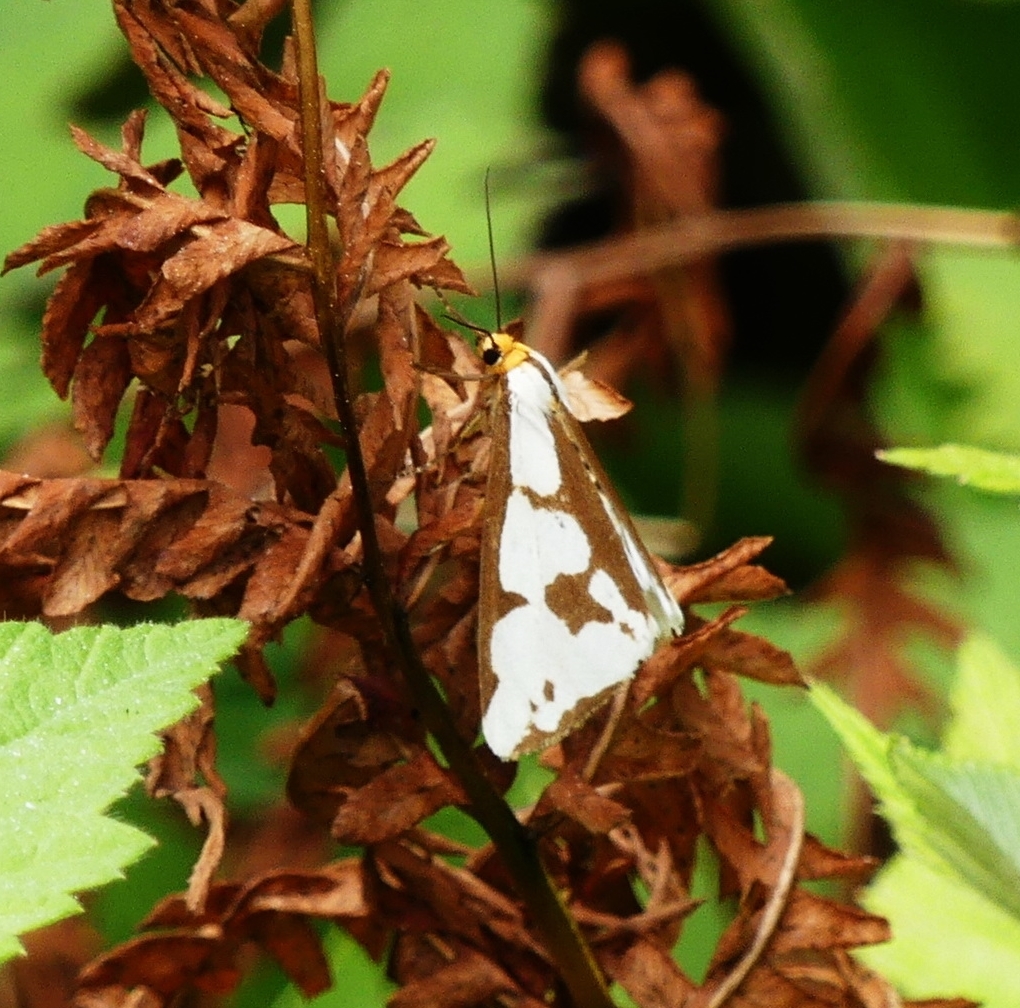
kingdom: Animalia
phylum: Arthropoda
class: Insecta
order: Lepidoptera
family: Erebidae
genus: Haploa
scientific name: Haploa lecontei
